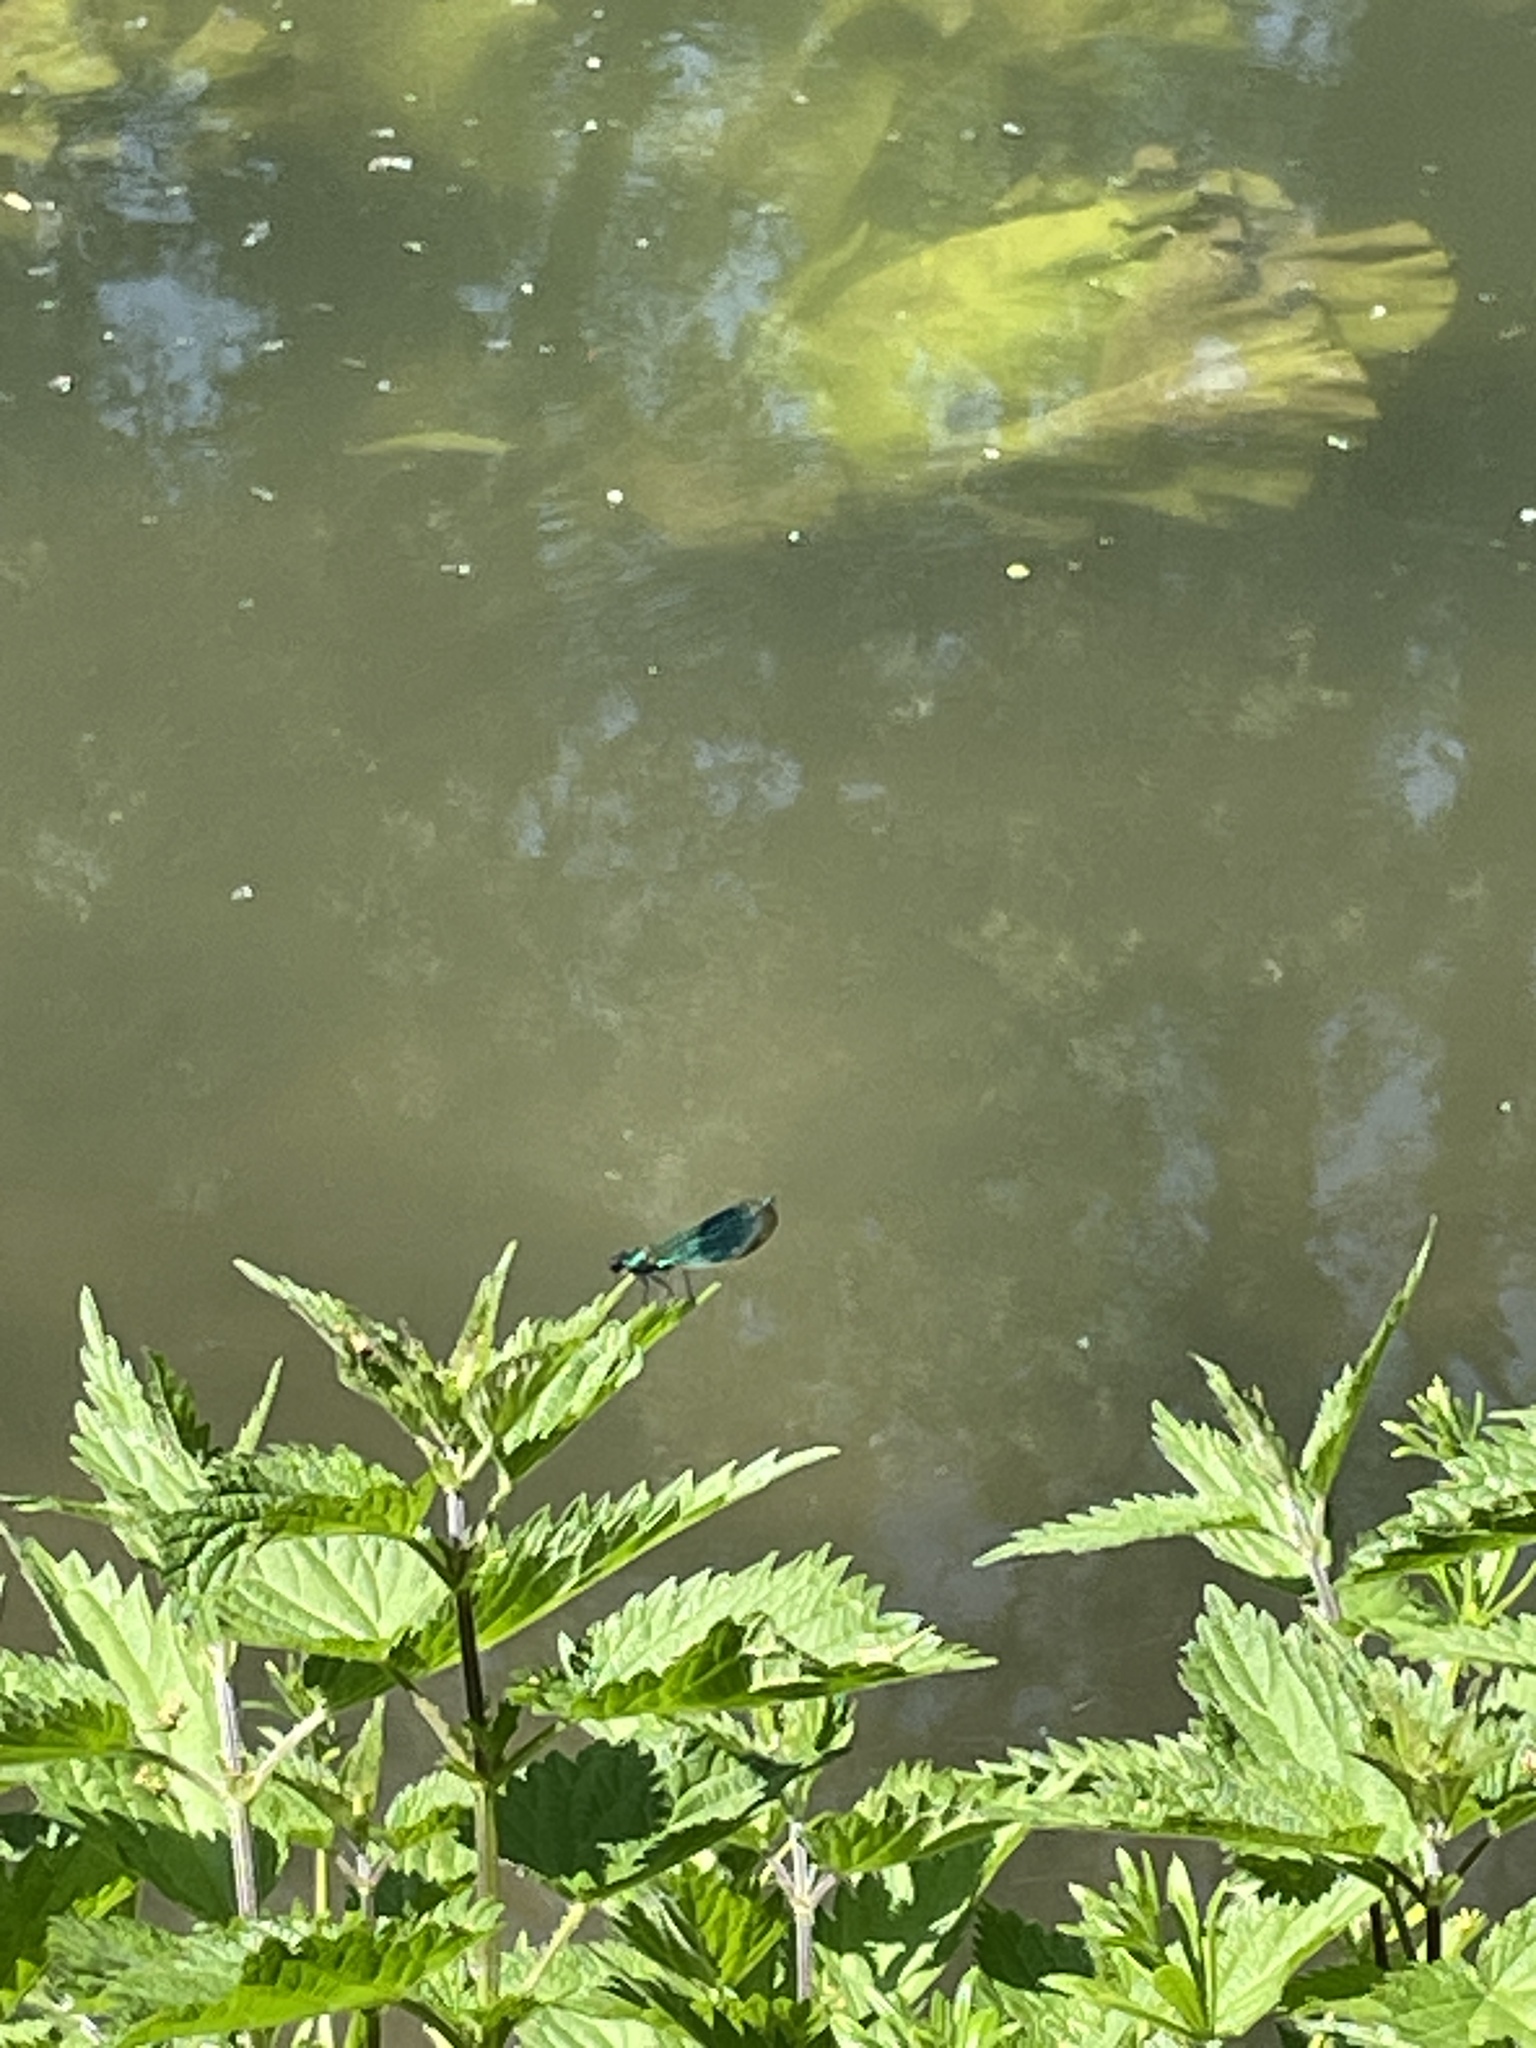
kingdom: Animalia
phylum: Arthropoda
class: Insecta
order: Odonata
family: Calopterygidae
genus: Calopteryx
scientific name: Calopteryx splendens
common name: Banded demoiselle
